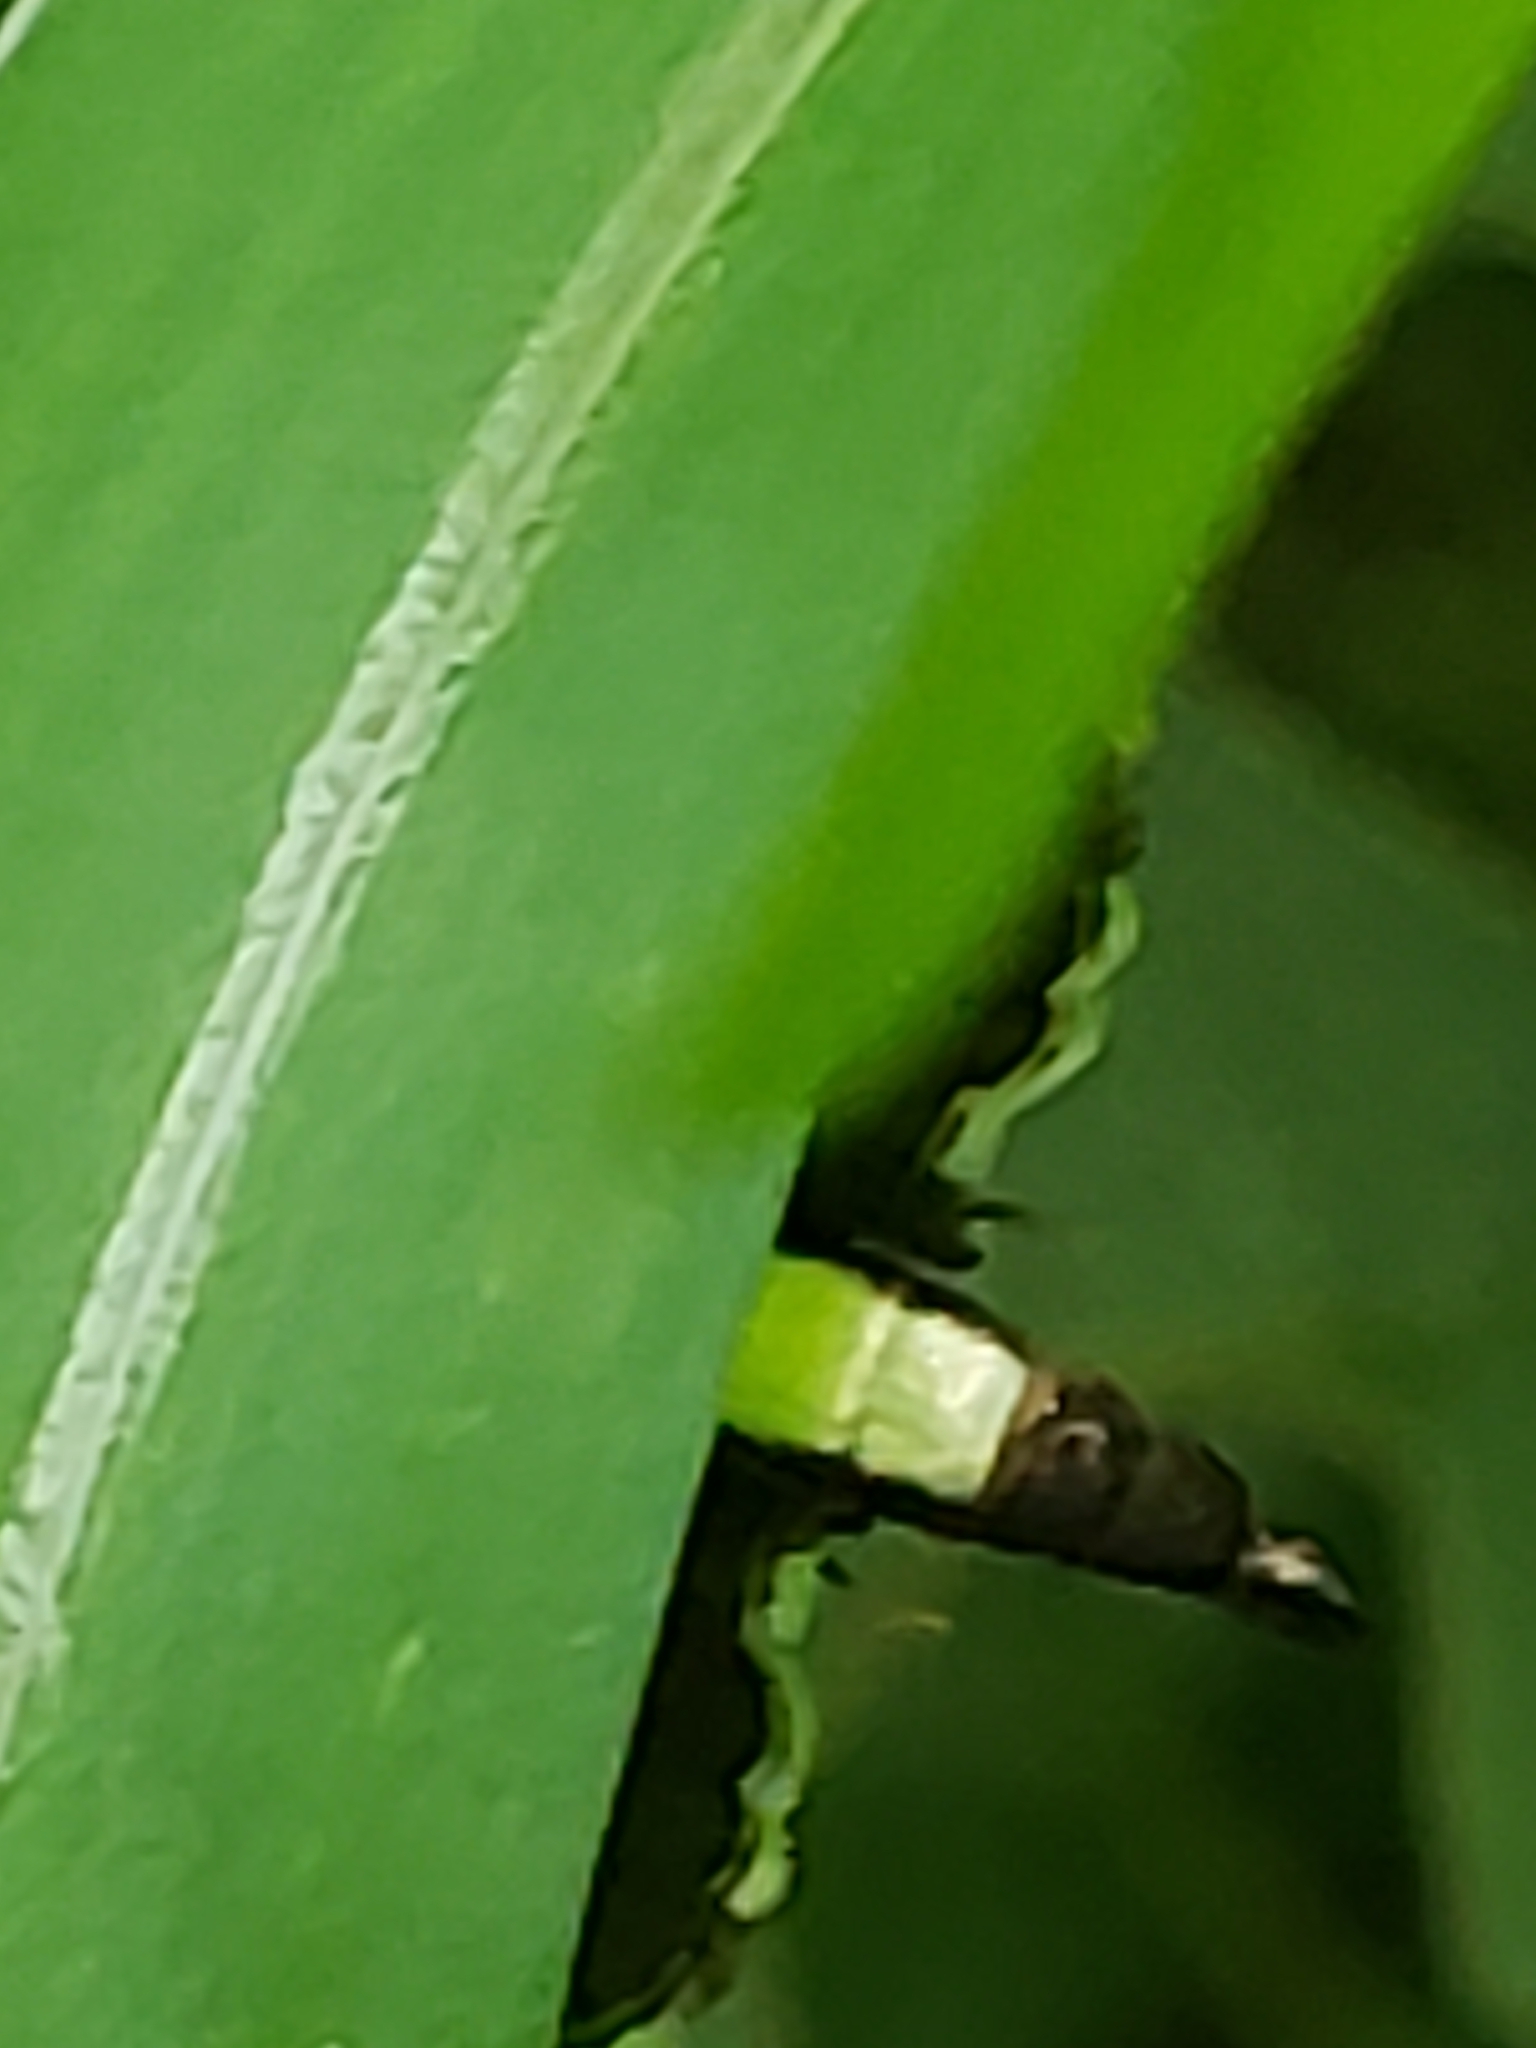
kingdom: Animalia
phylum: Arthropoda
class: Insecta
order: Lepidoptera
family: Crambidae
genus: Desmia
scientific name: Desmia funeralis
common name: Grape leaf folder moth
